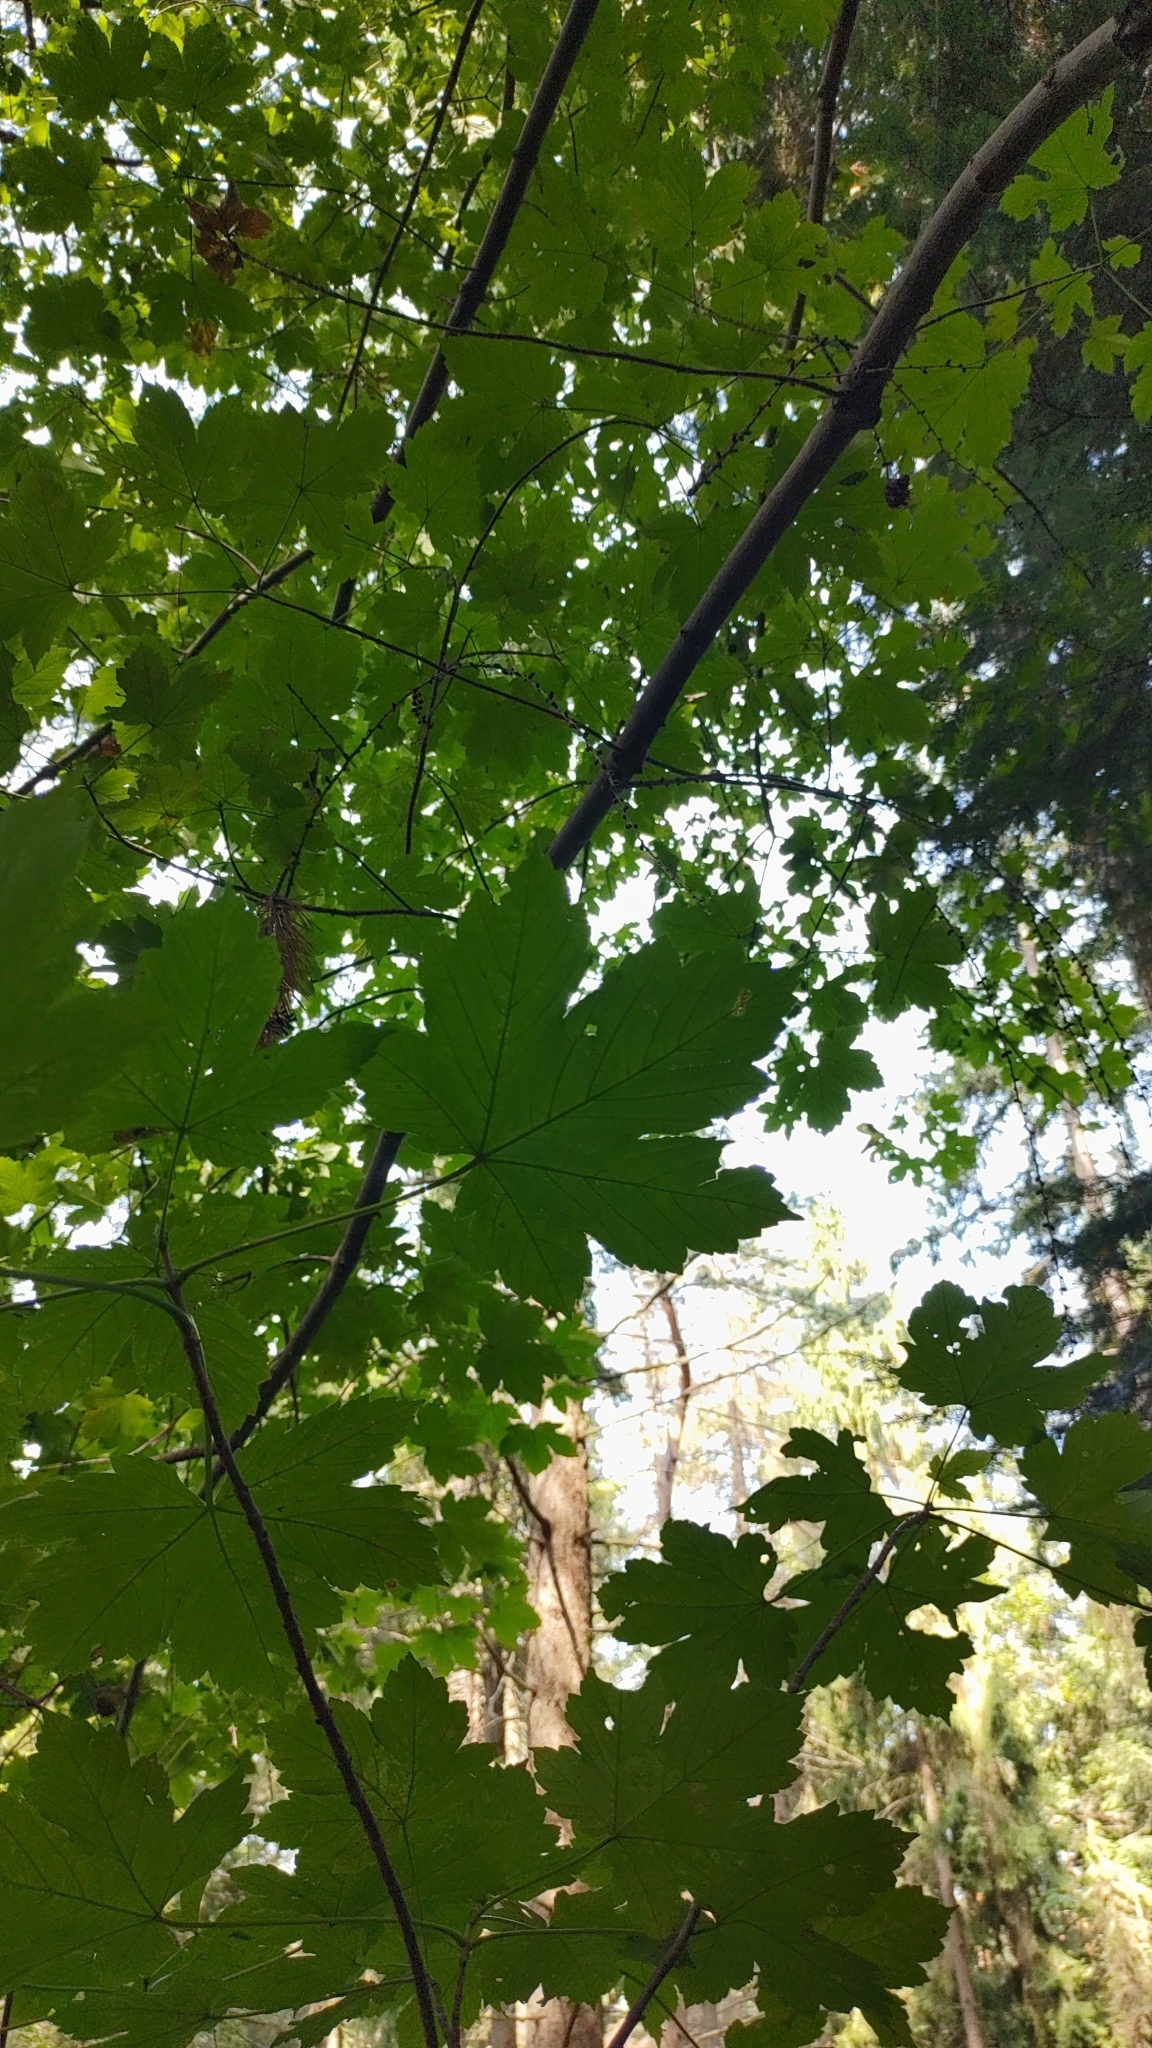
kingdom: Plantae
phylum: Tracheophyta
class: Magnoliopsida
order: Sapindales
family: Sapindaceae
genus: Acer
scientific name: Acer pseudoplatanus
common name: Sycamore
